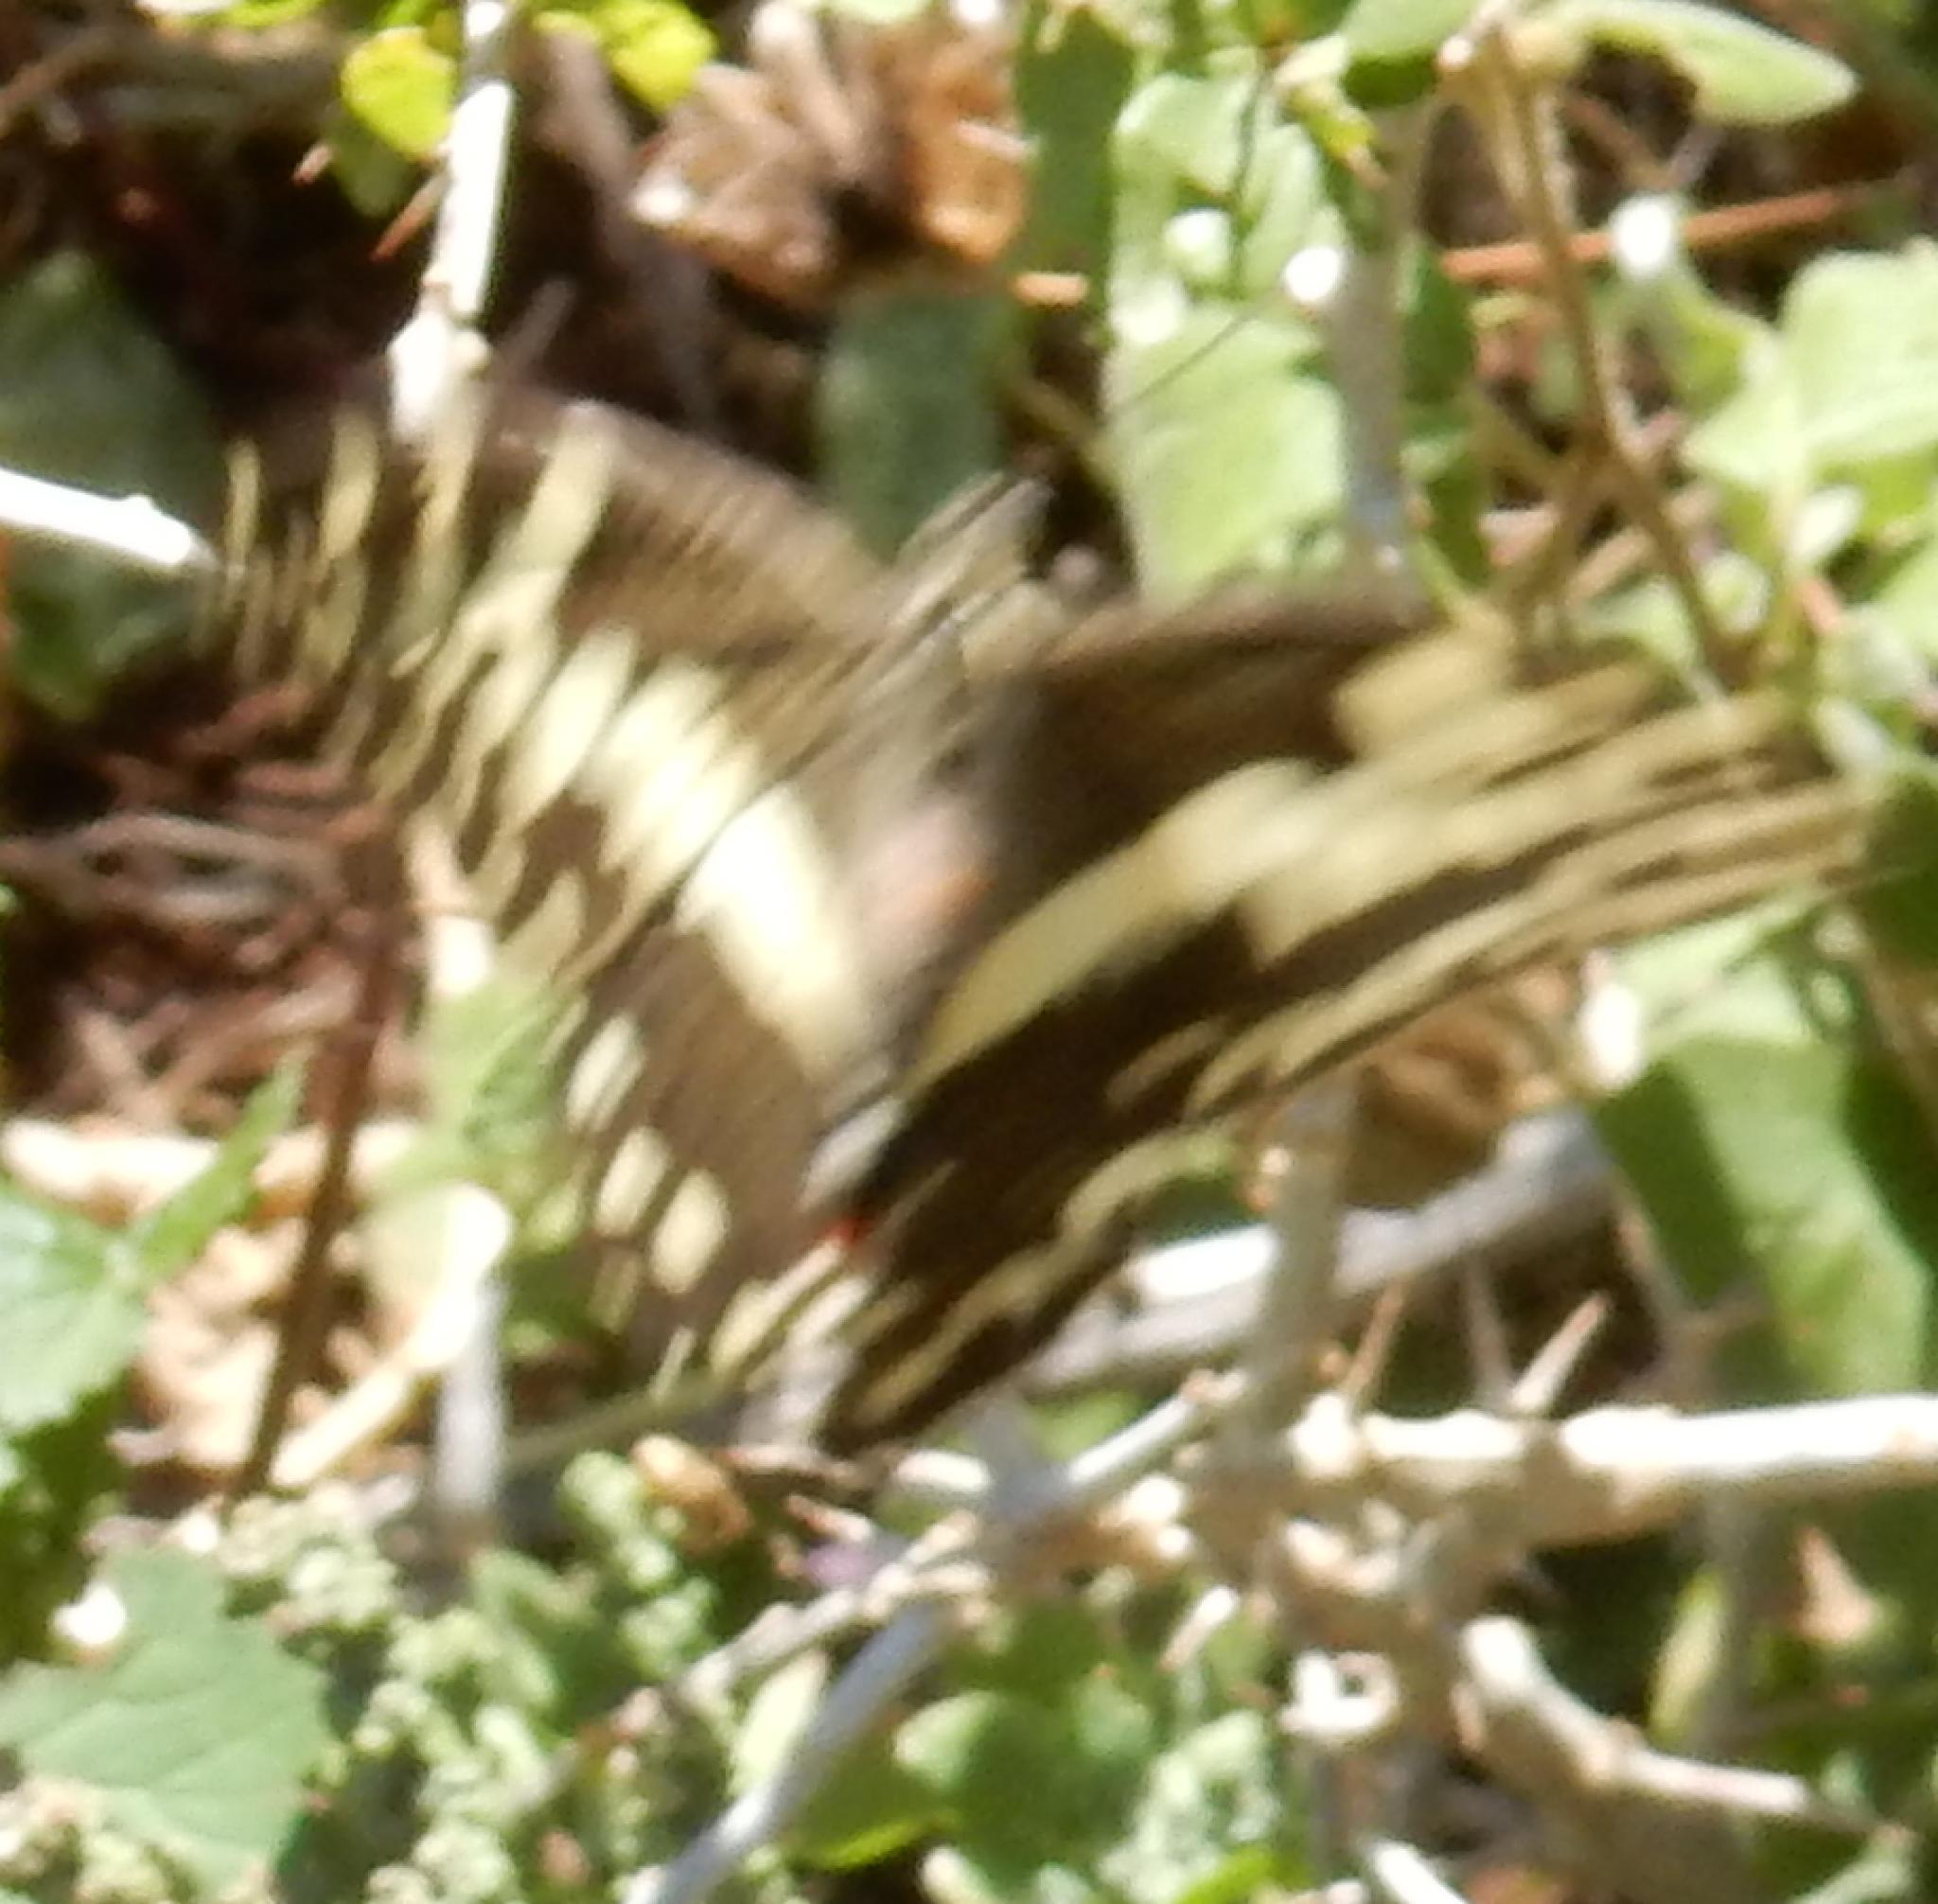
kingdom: Animalia
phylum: Arthropoda
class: Insecta
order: Lepidoptera
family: Papilionidae
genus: Papilio
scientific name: Papilio demodocus
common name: Christmas butterfly
